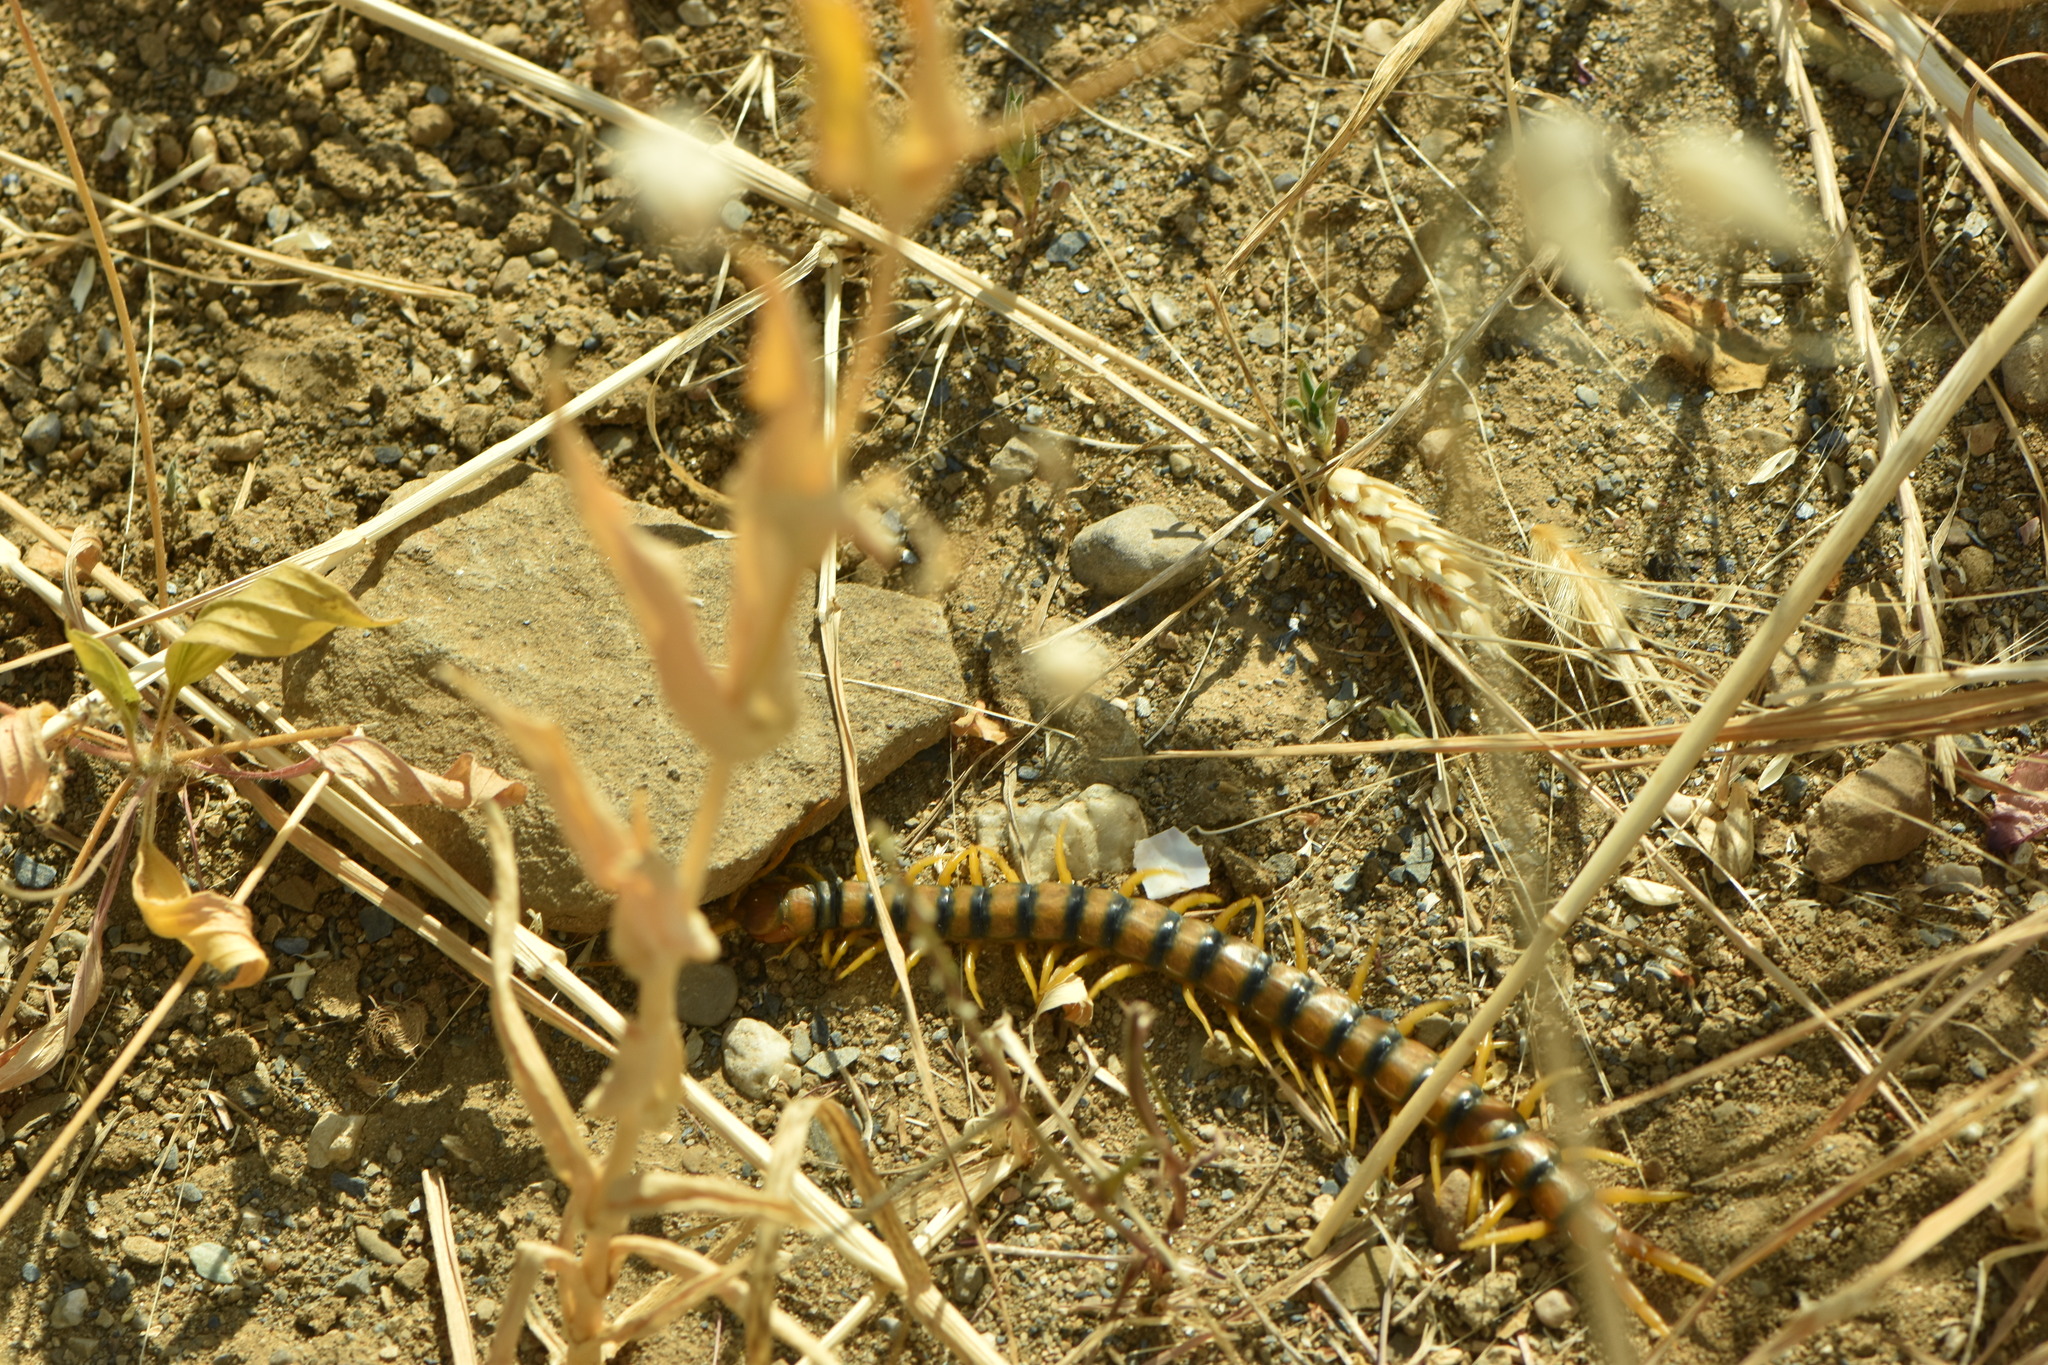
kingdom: Animalia
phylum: Arthropoda
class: Chilopoda
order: Scolopendromorpha
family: Scolopendridae
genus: Scolopendra
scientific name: Scolopendra cingulata
